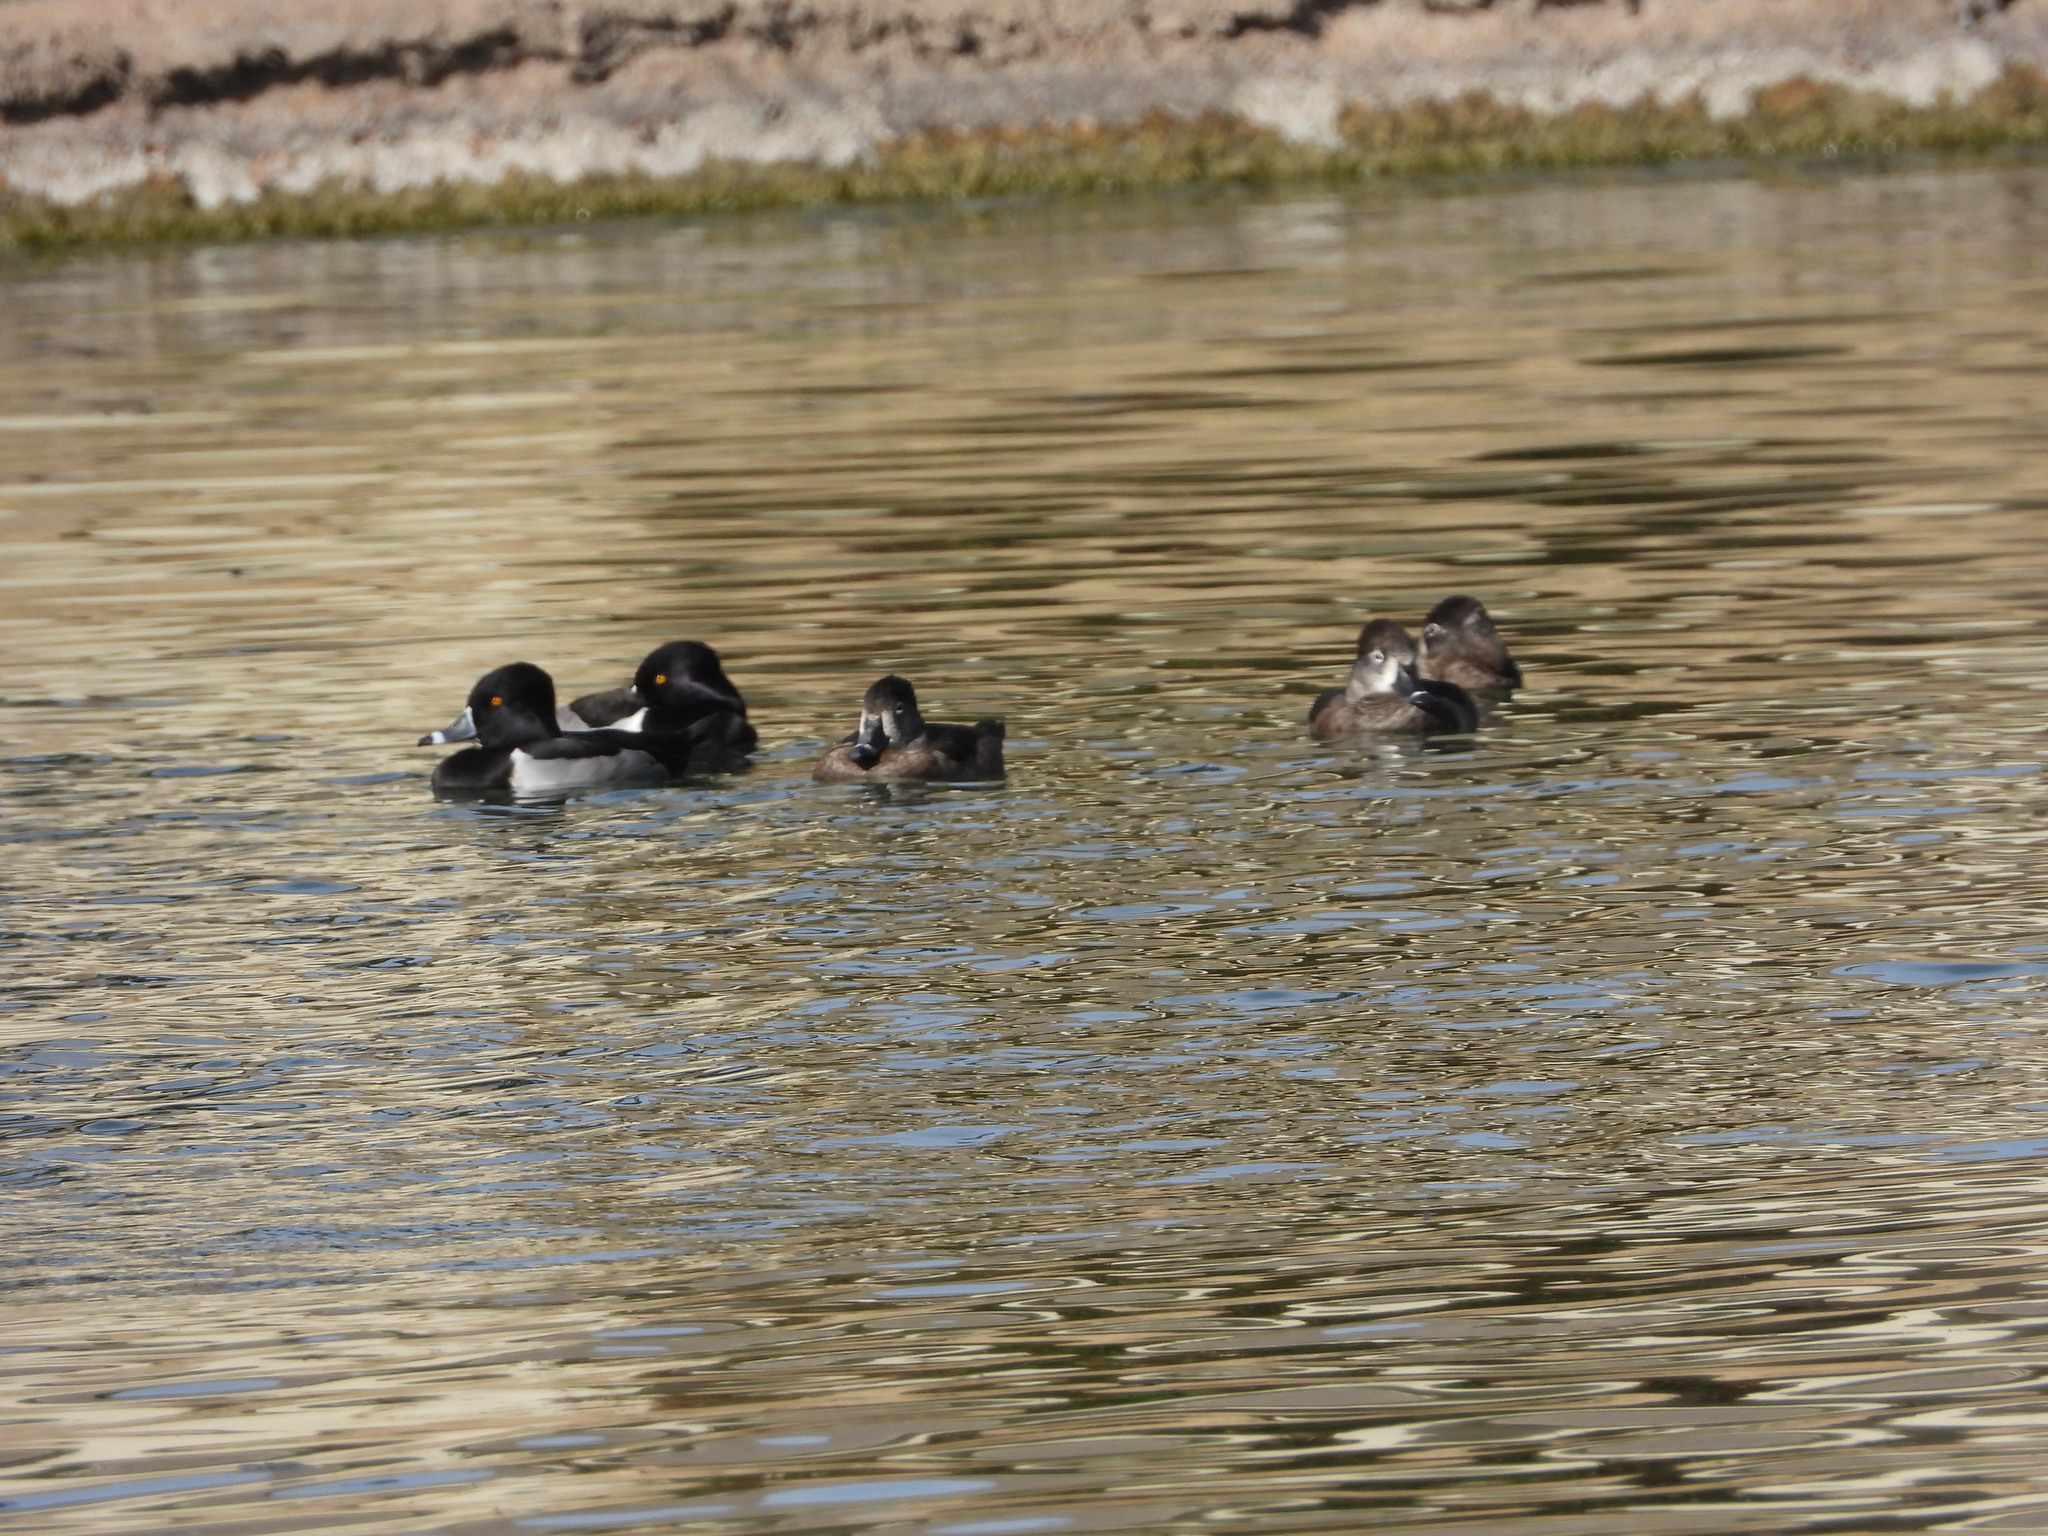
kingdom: Animalia
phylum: Chordata
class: Aves
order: Anseriformes
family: Anatidae
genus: Aythya
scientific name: Aythya collaris
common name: Ring-necked duck
